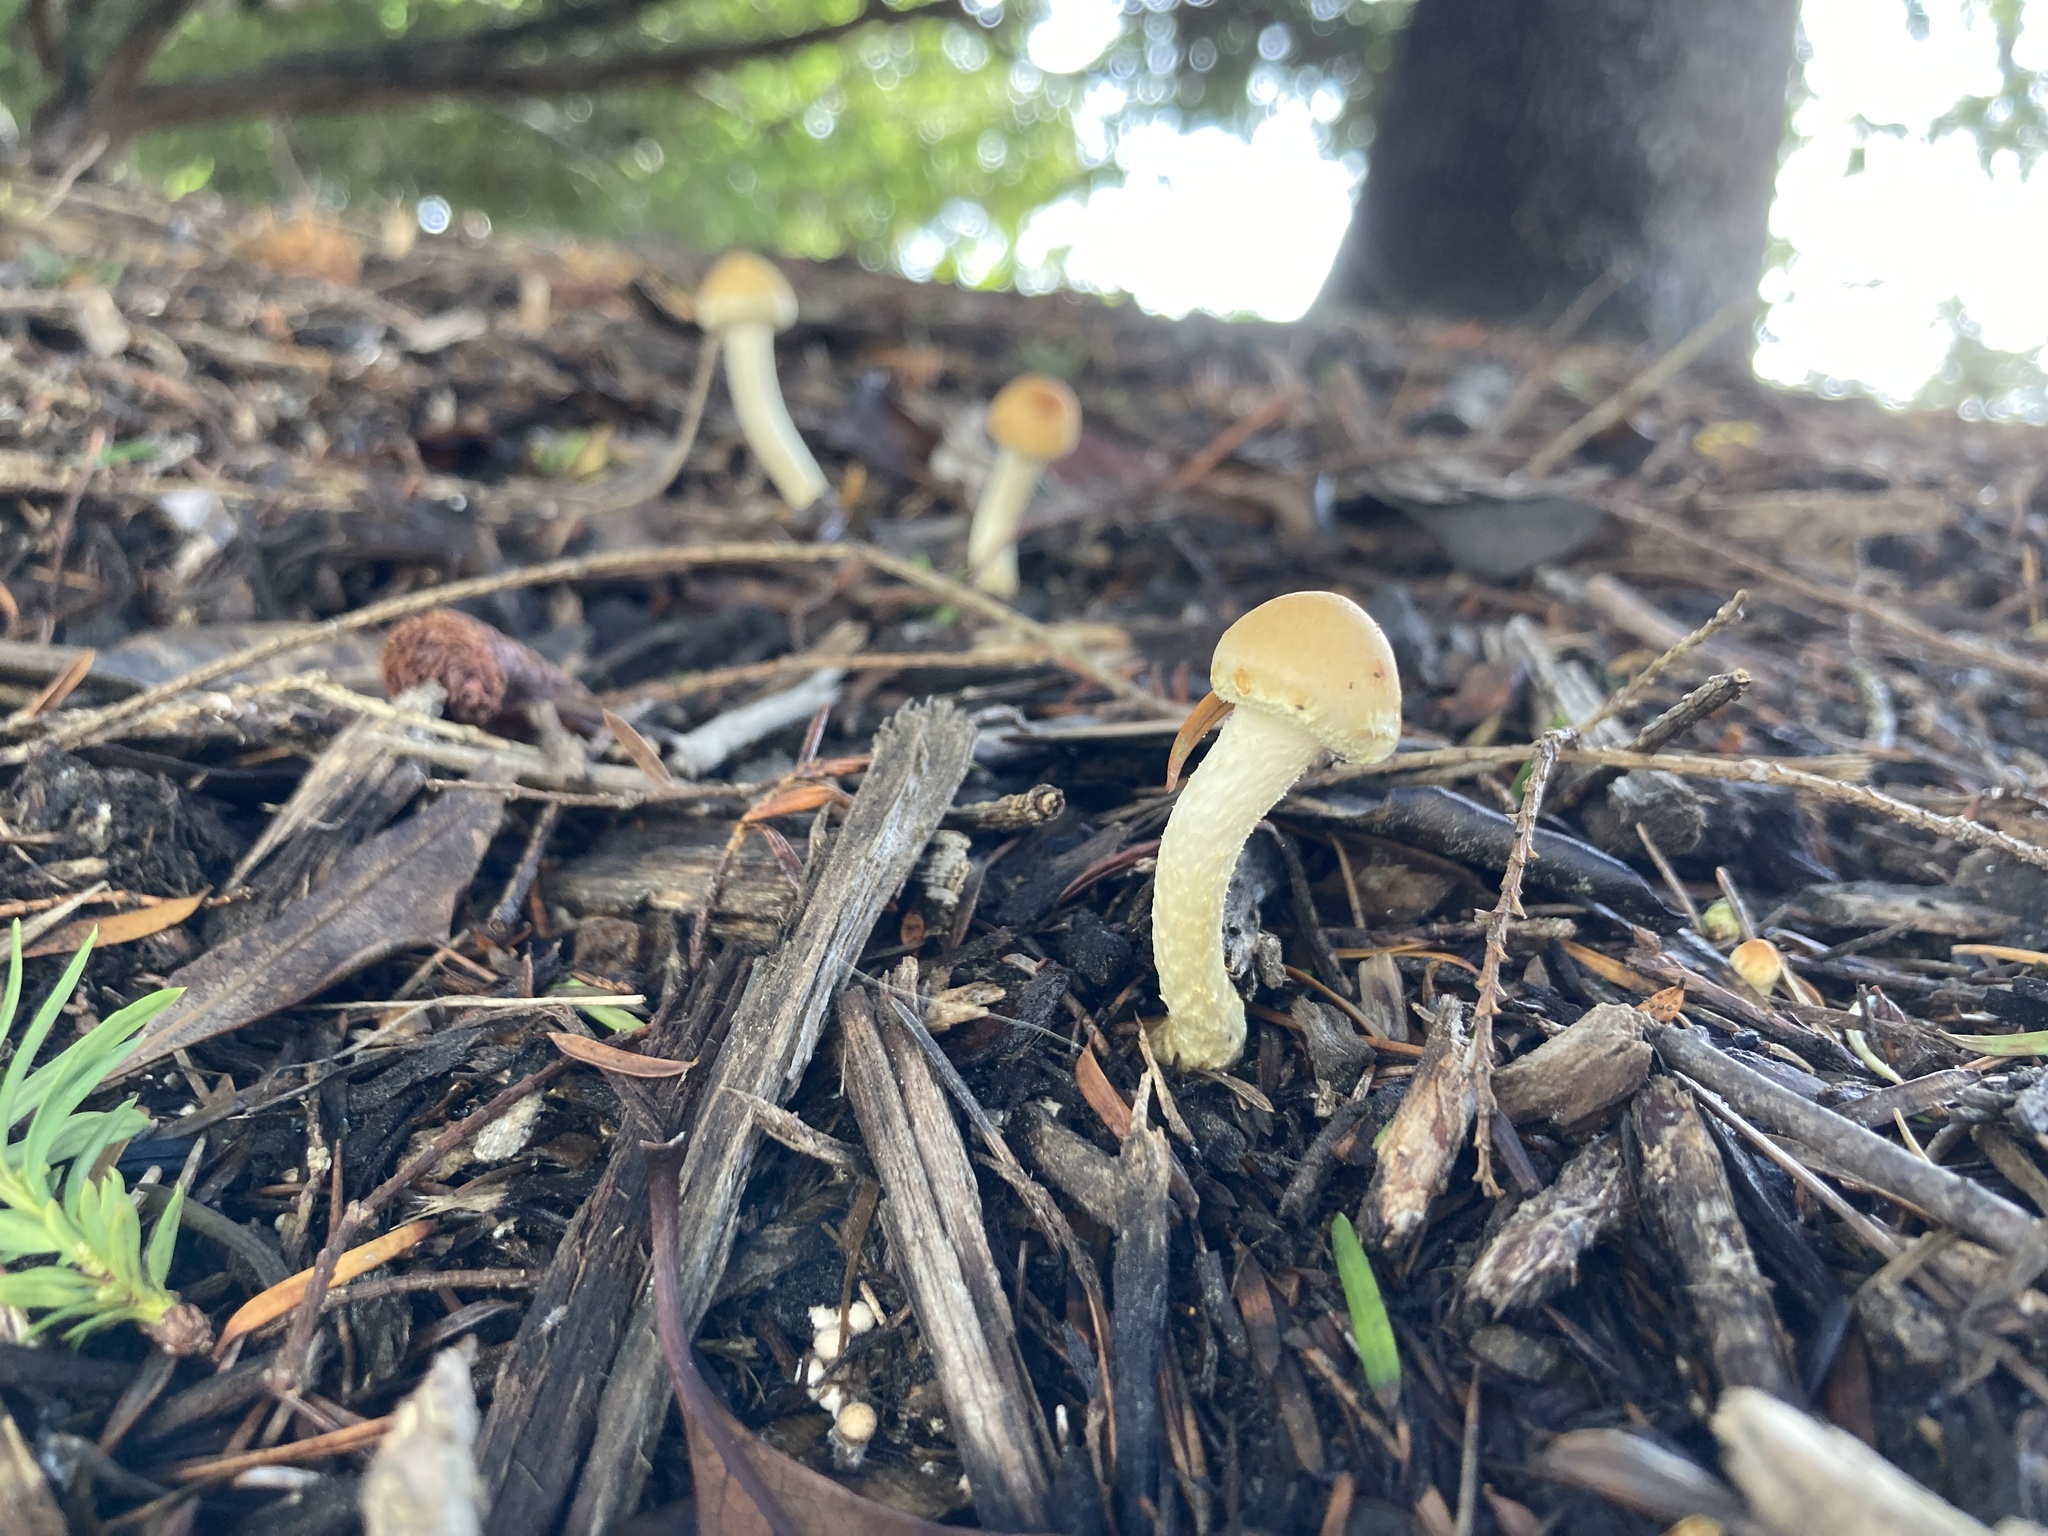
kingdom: Fungi
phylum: Basidiomycota
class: Agaricomycetes
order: Agaricales
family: Strophariaceae
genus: Leratiomyces
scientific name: Leratiomyces percevalii
